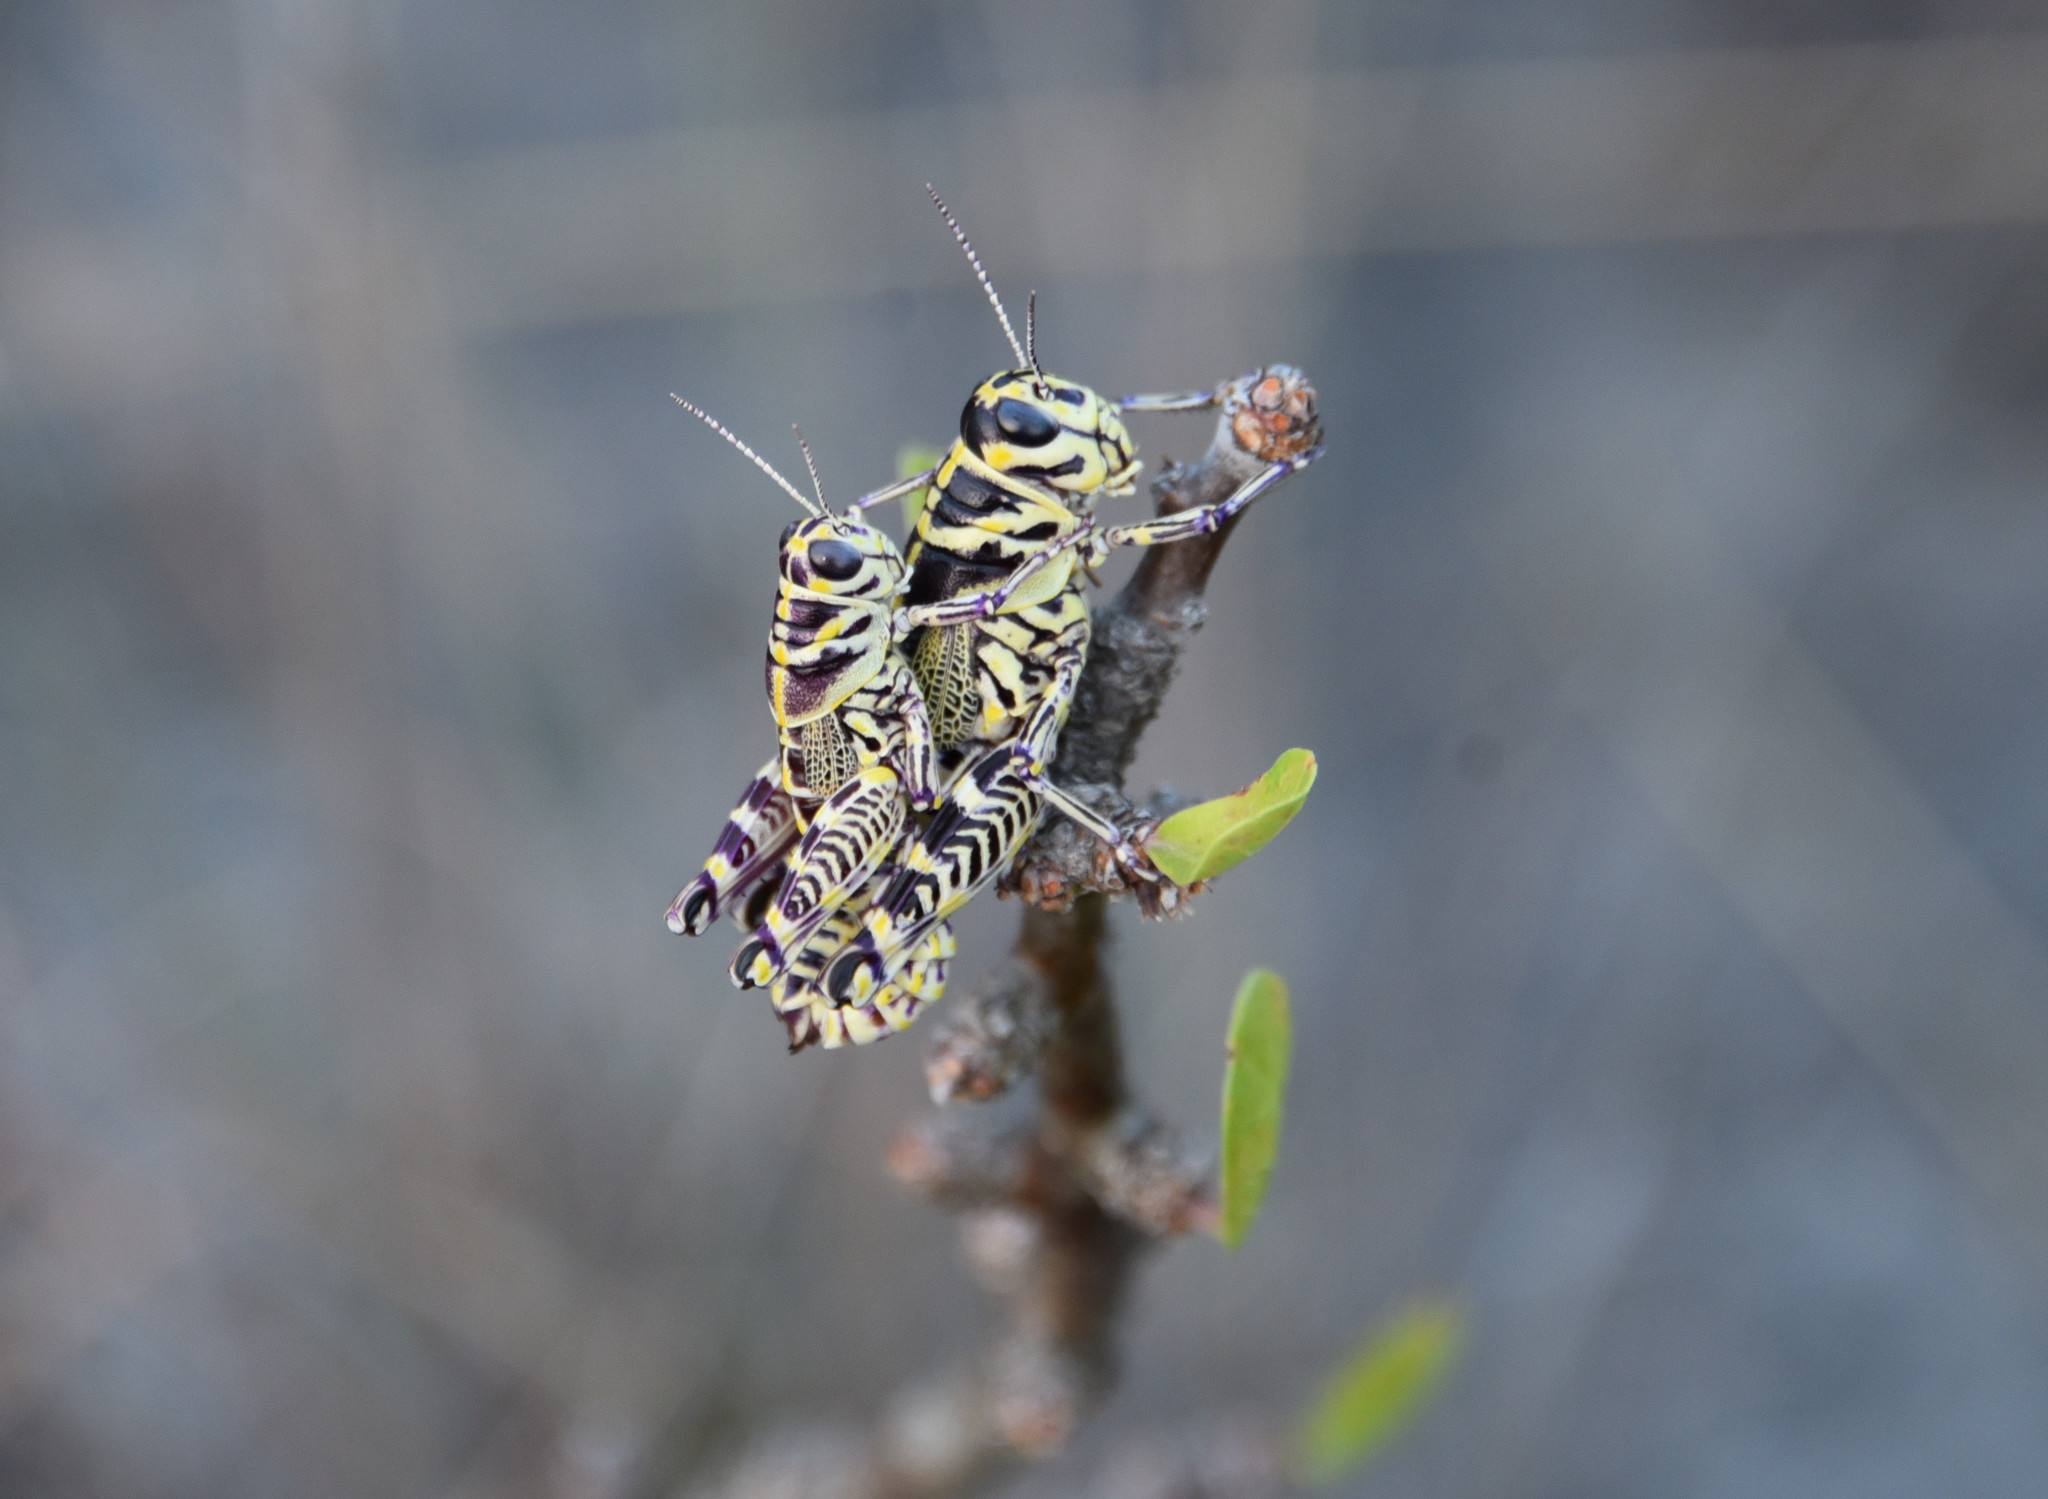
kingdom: Animalia
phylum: Arthropoda
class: Insecta
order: Orthoptera
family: Acrididae
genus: Dactylotum
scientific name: Dactylotum bicolor
